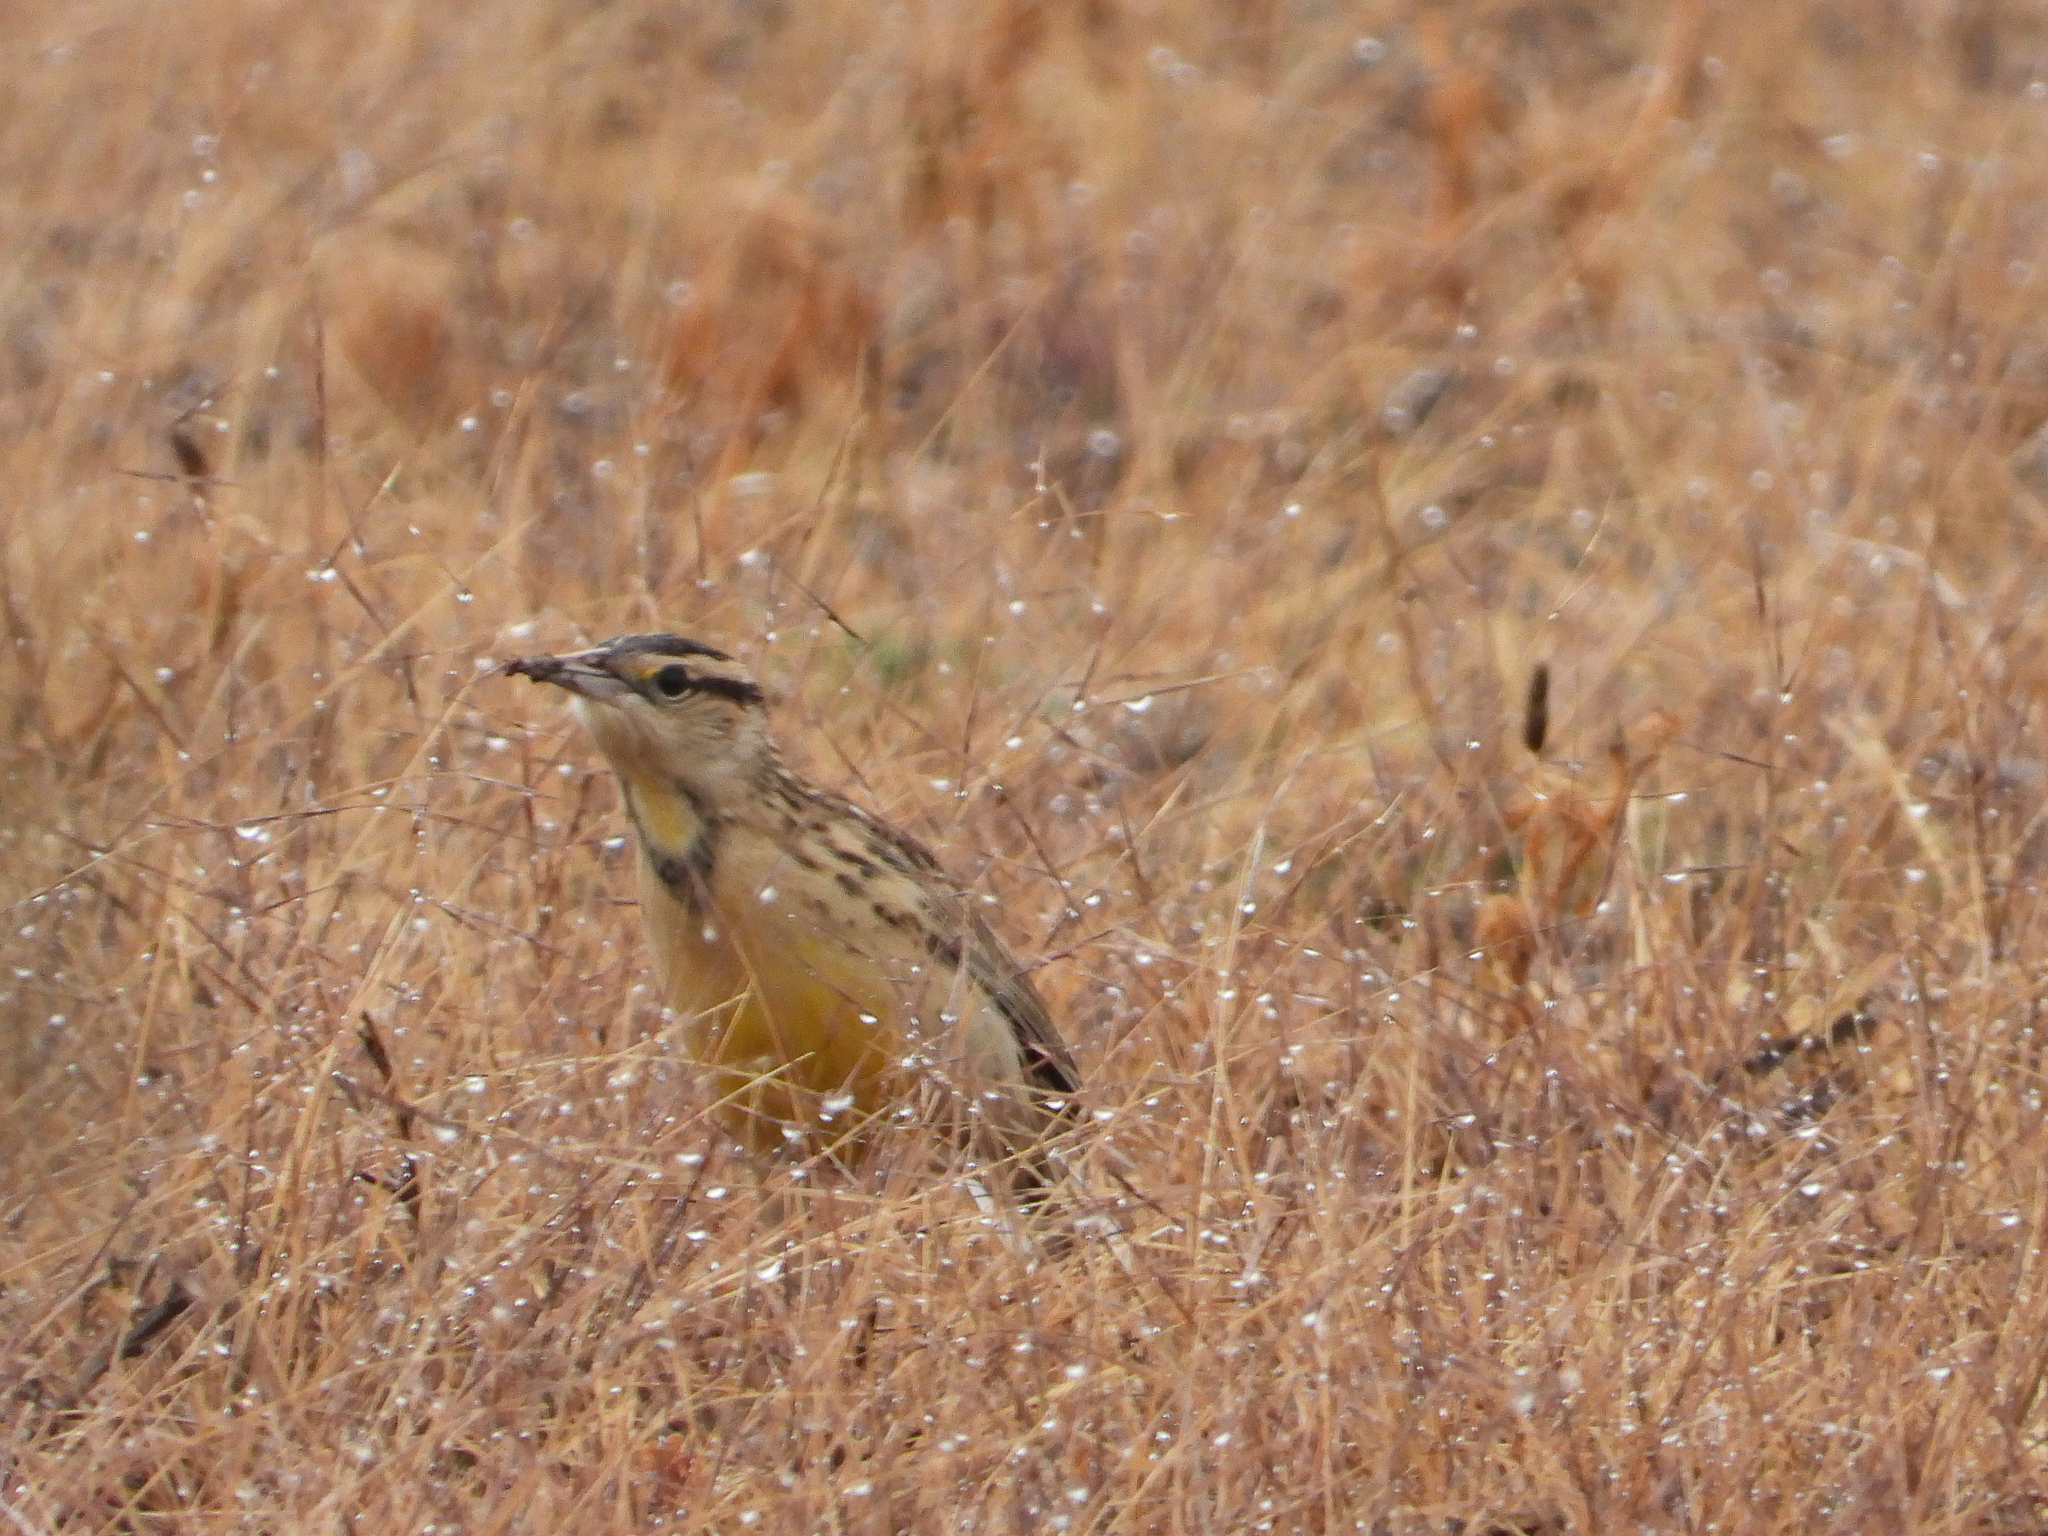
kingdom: Animalia
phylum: Chordata
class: Aves
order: Passeriformes
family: Icteridae
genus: Sturnella
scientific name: Sturnella lilianae
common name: Lilian's meadowlark
